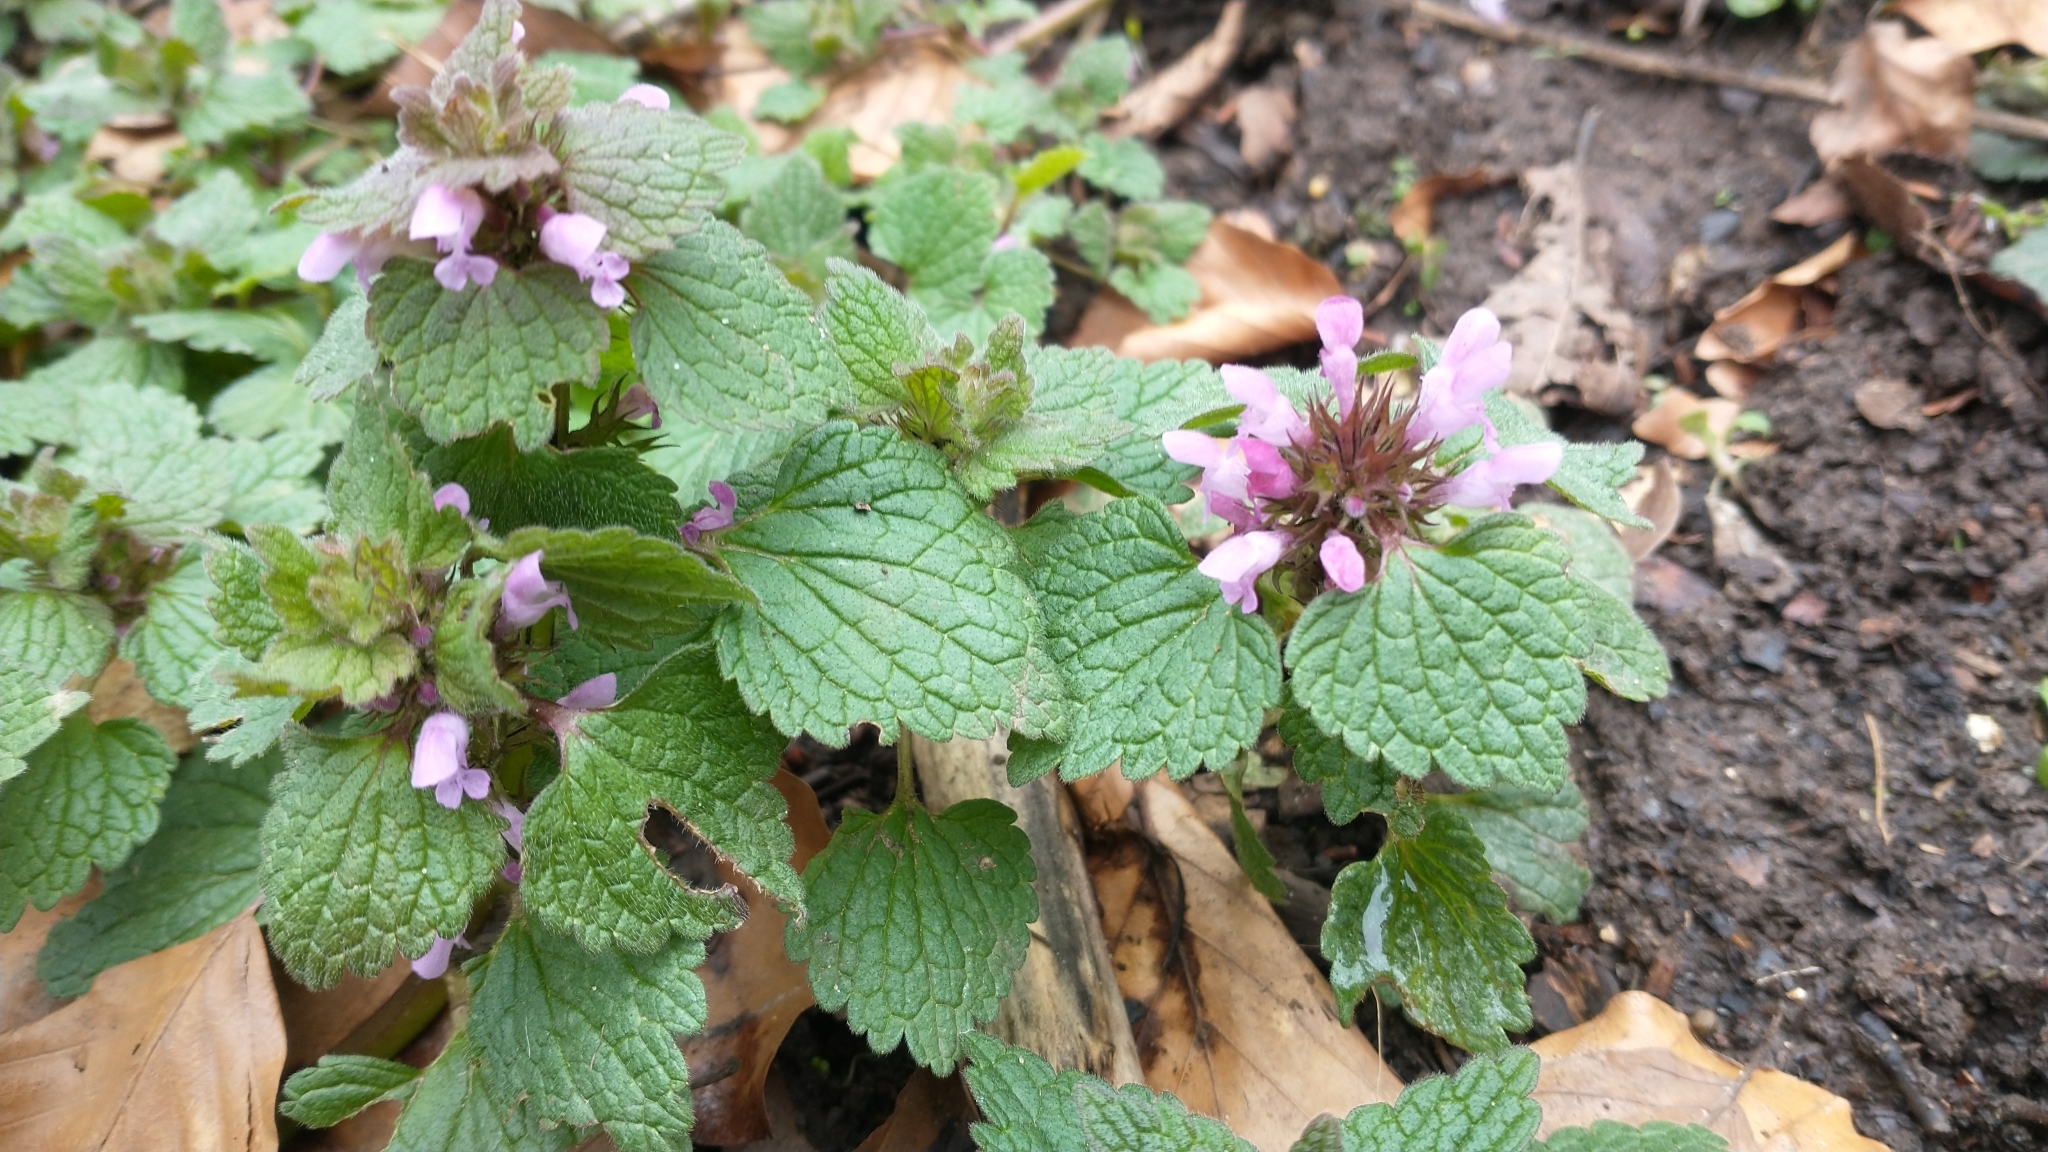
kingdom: Plantae
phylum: Tracheophyta
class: Magnoliopsida
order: Lamiales
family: Lamiaceae
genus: Lamium
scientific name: Lamium purpureum
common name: Red dead-nettle
